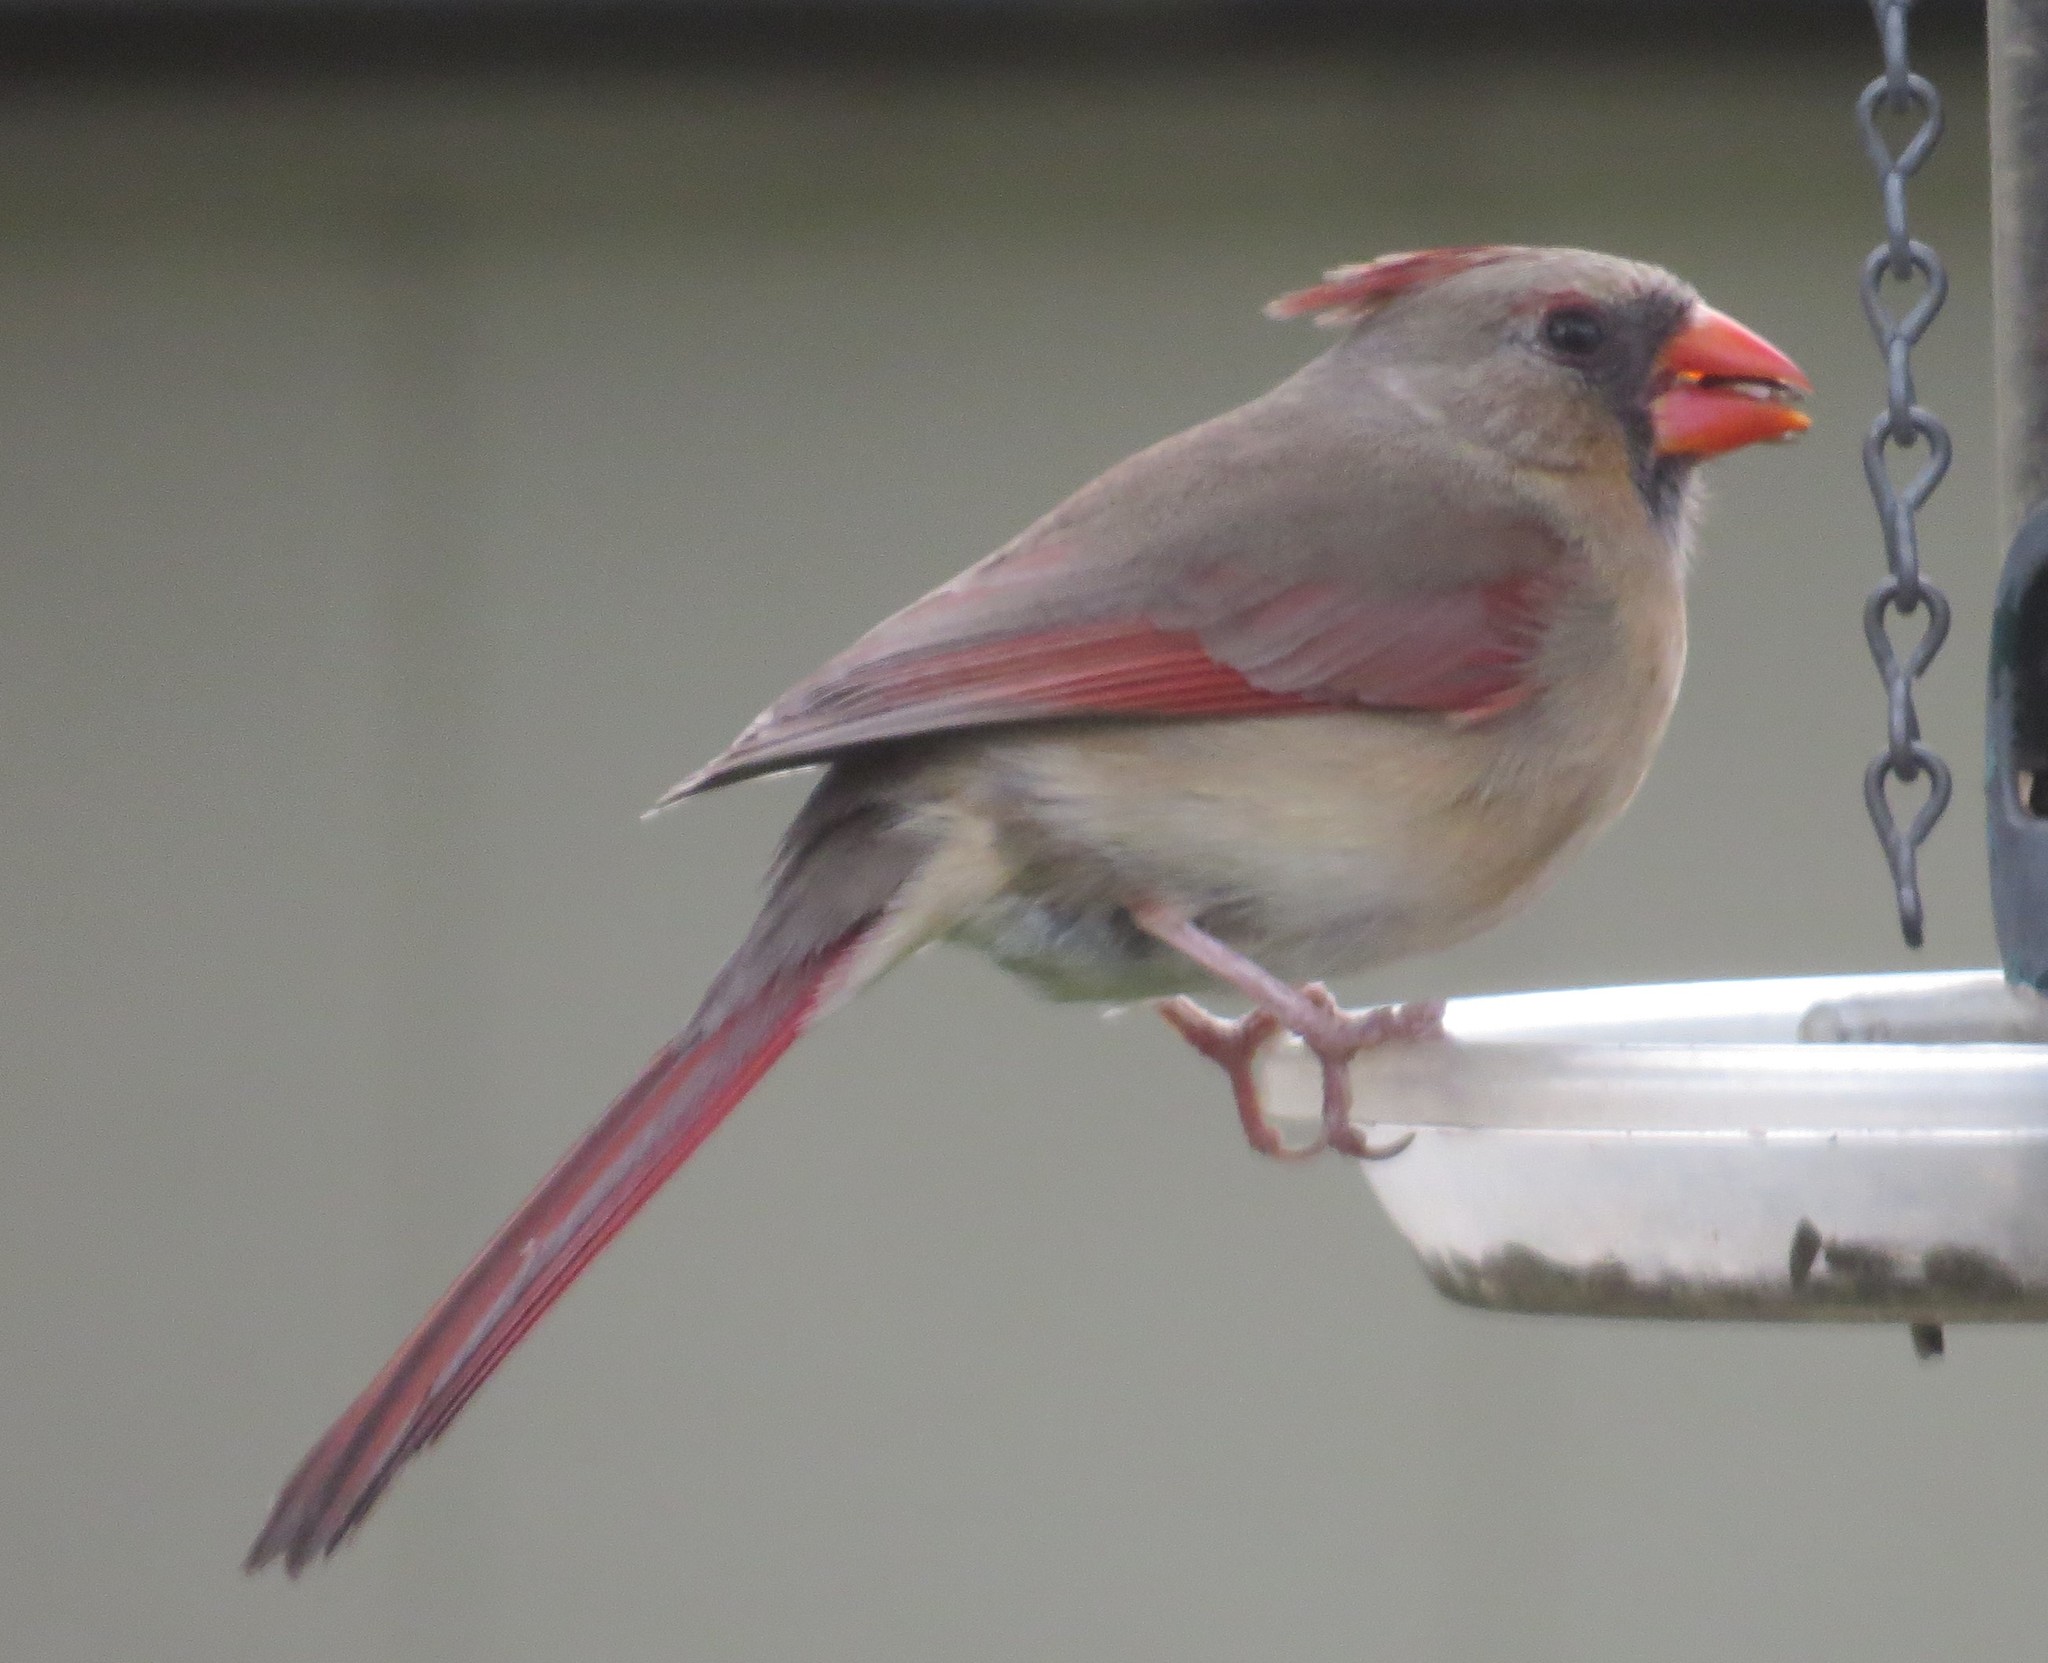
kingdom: Animalia
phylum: Chordata
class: Aves
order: Passeriformes
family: Cardinalidae
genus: Cardinalis
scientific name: Cardinalis cardinalis
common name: Northern cardinal
